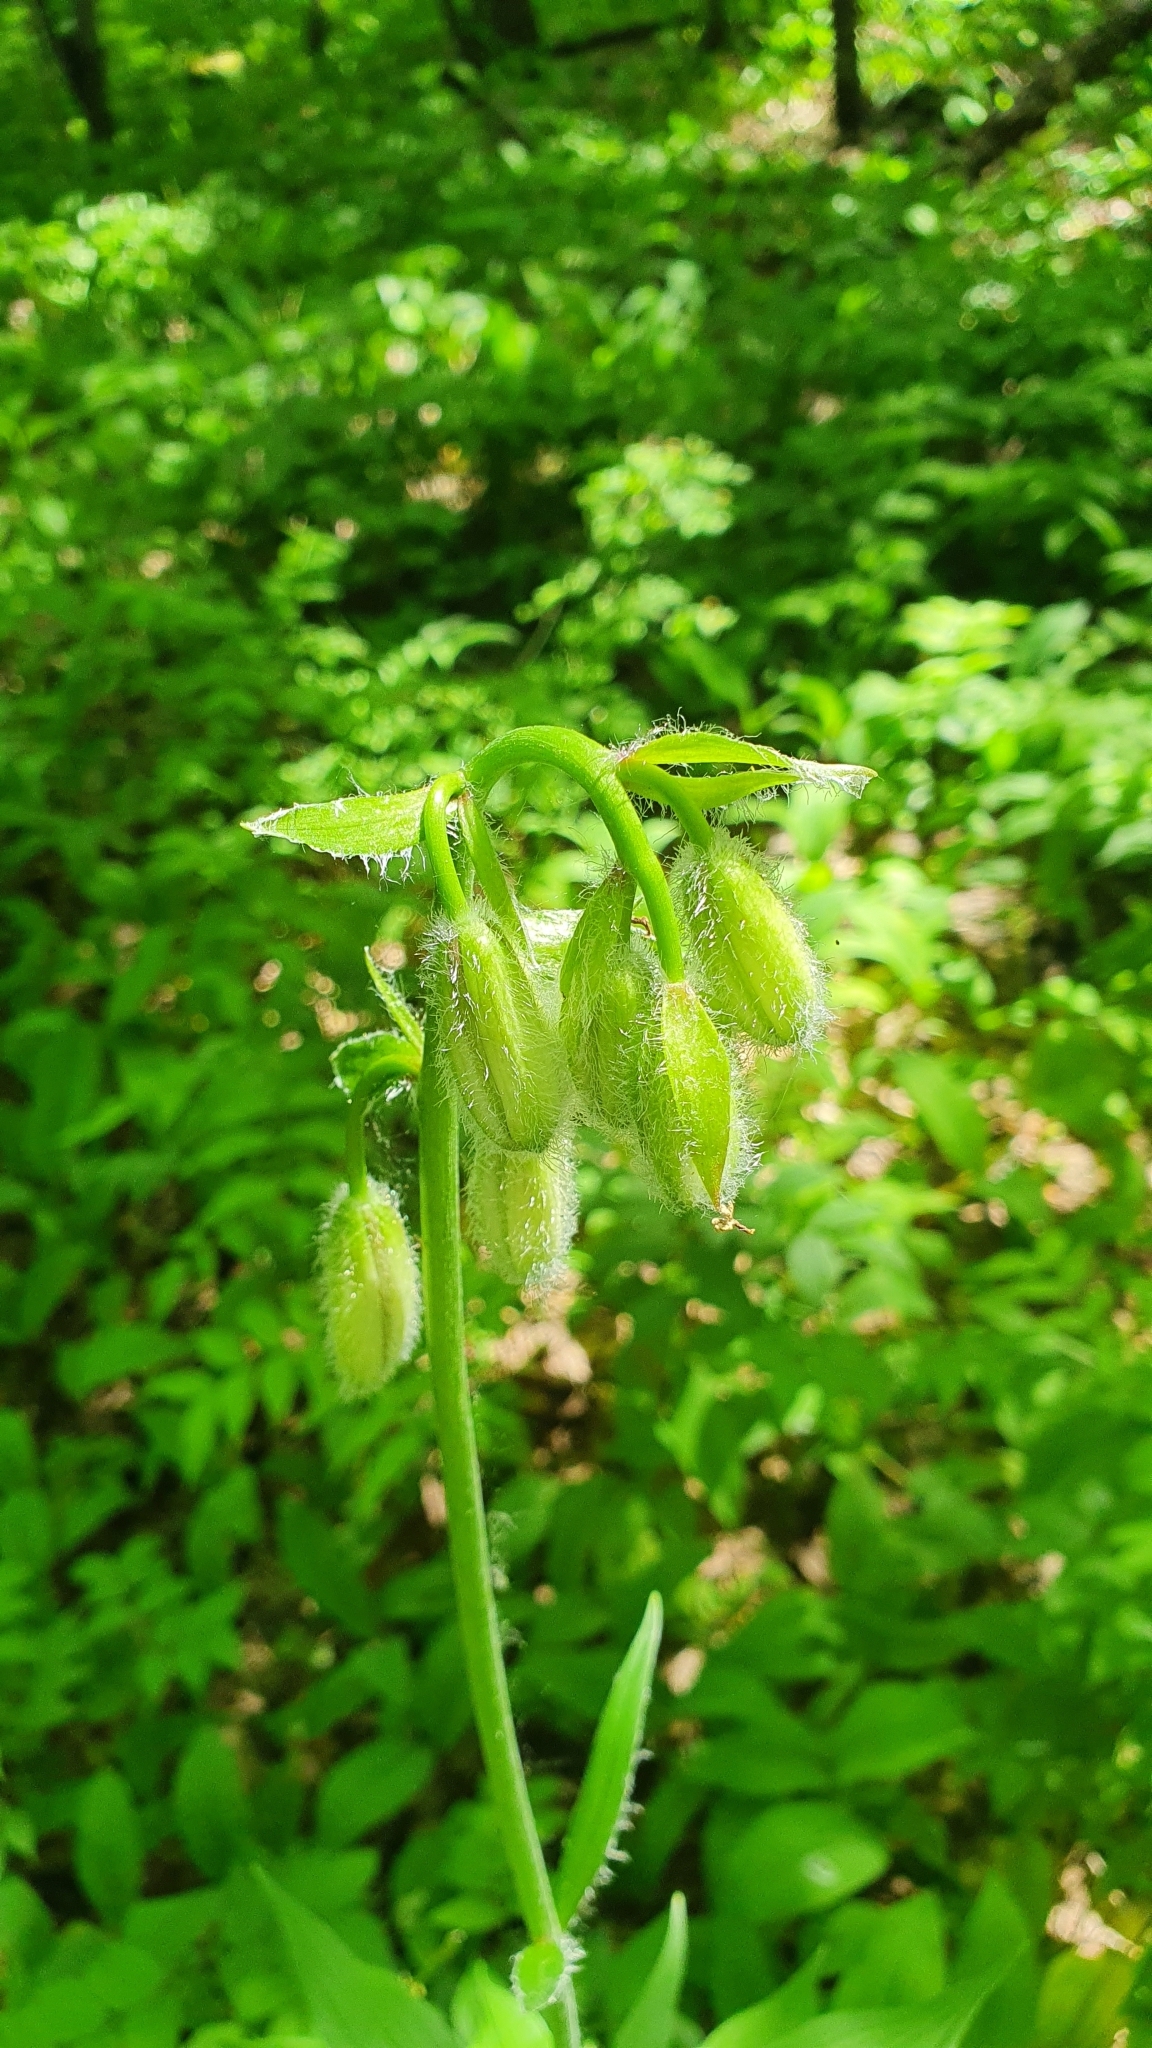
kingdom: Plantae
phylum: Tracheophyta
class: Liliopsida
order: Liliales
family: Liliaceae
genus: Lilium
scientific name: Lilium martagon
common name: Martagon lily
